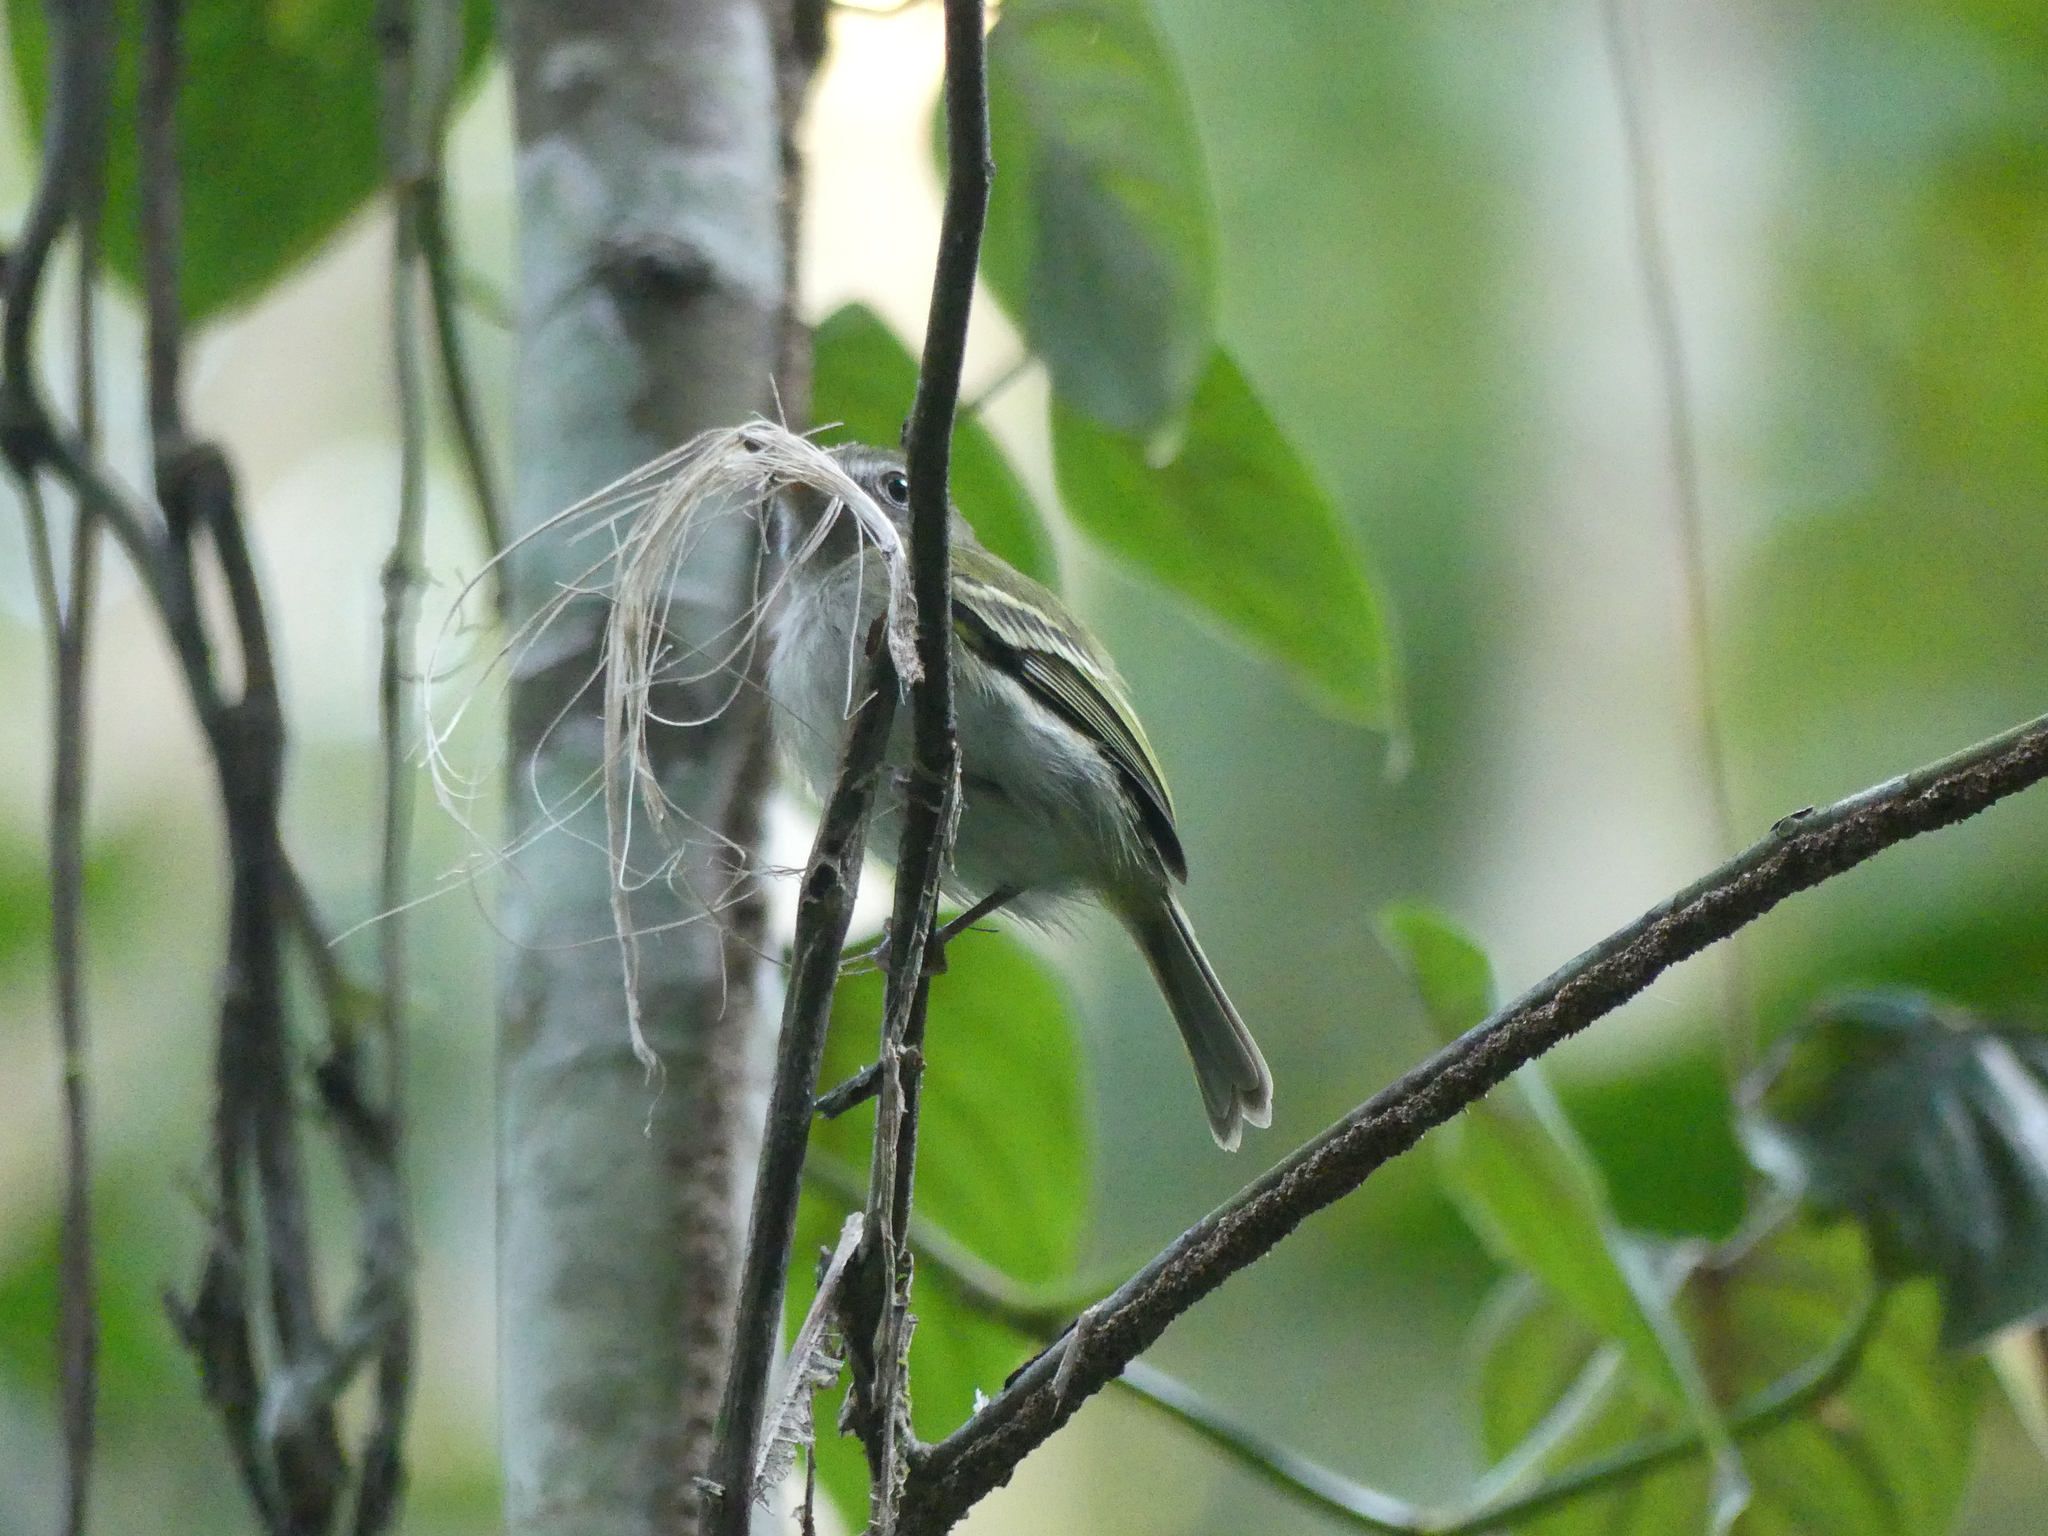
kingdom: Animalia
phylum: Chordata
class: Aves
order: Passeriformes
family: Tyrannidae
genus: Hemitriccus
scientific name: Hemitriccus griseipectus
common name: White-bellied tody-tyrant
